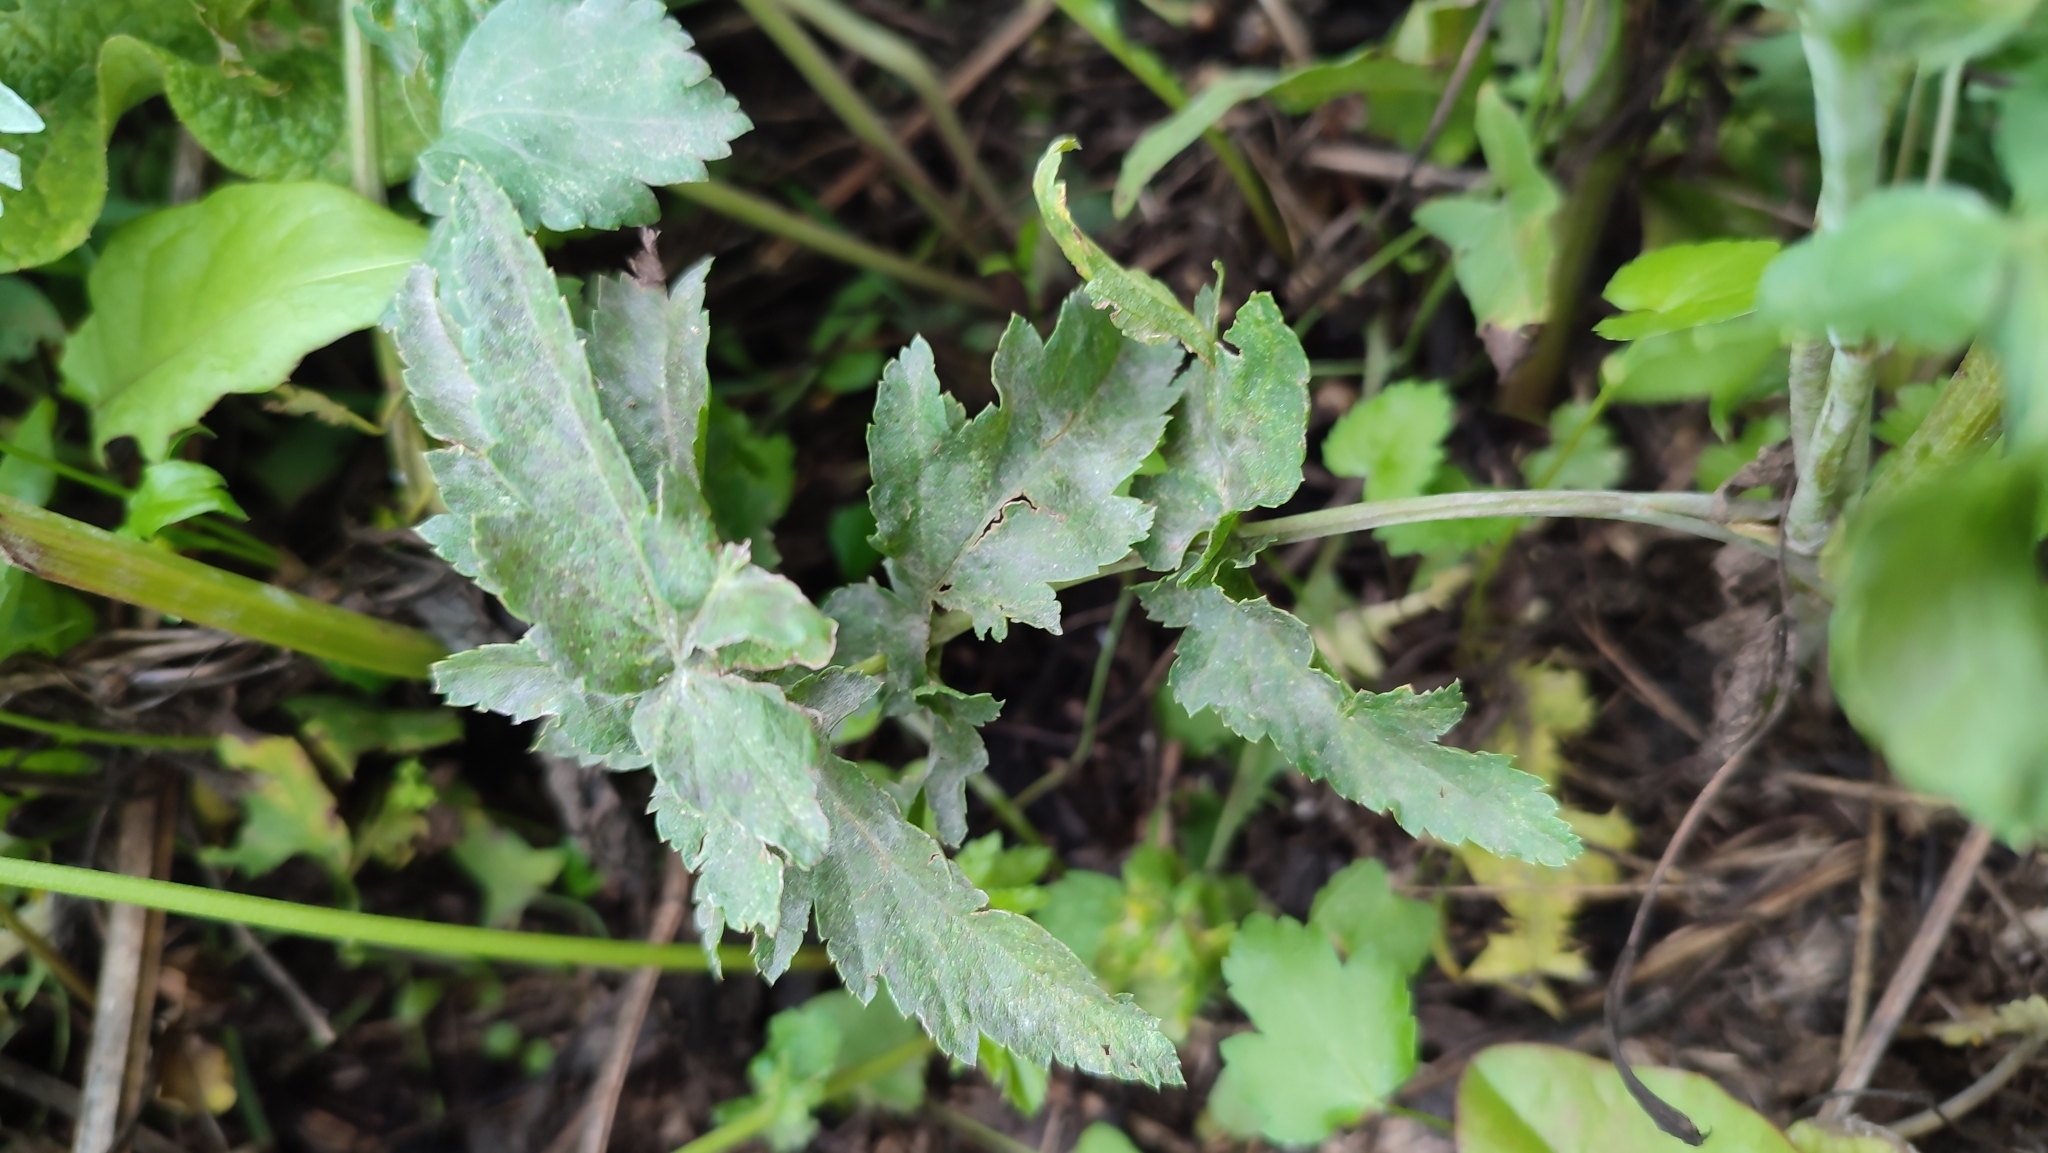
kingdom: Plantae
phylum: Tracheophyta
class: Magnoliopsida
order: Apiales
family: Apiaceae
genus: Pastinaca
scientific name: Pastinaca sativa
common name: Wild parsnip
